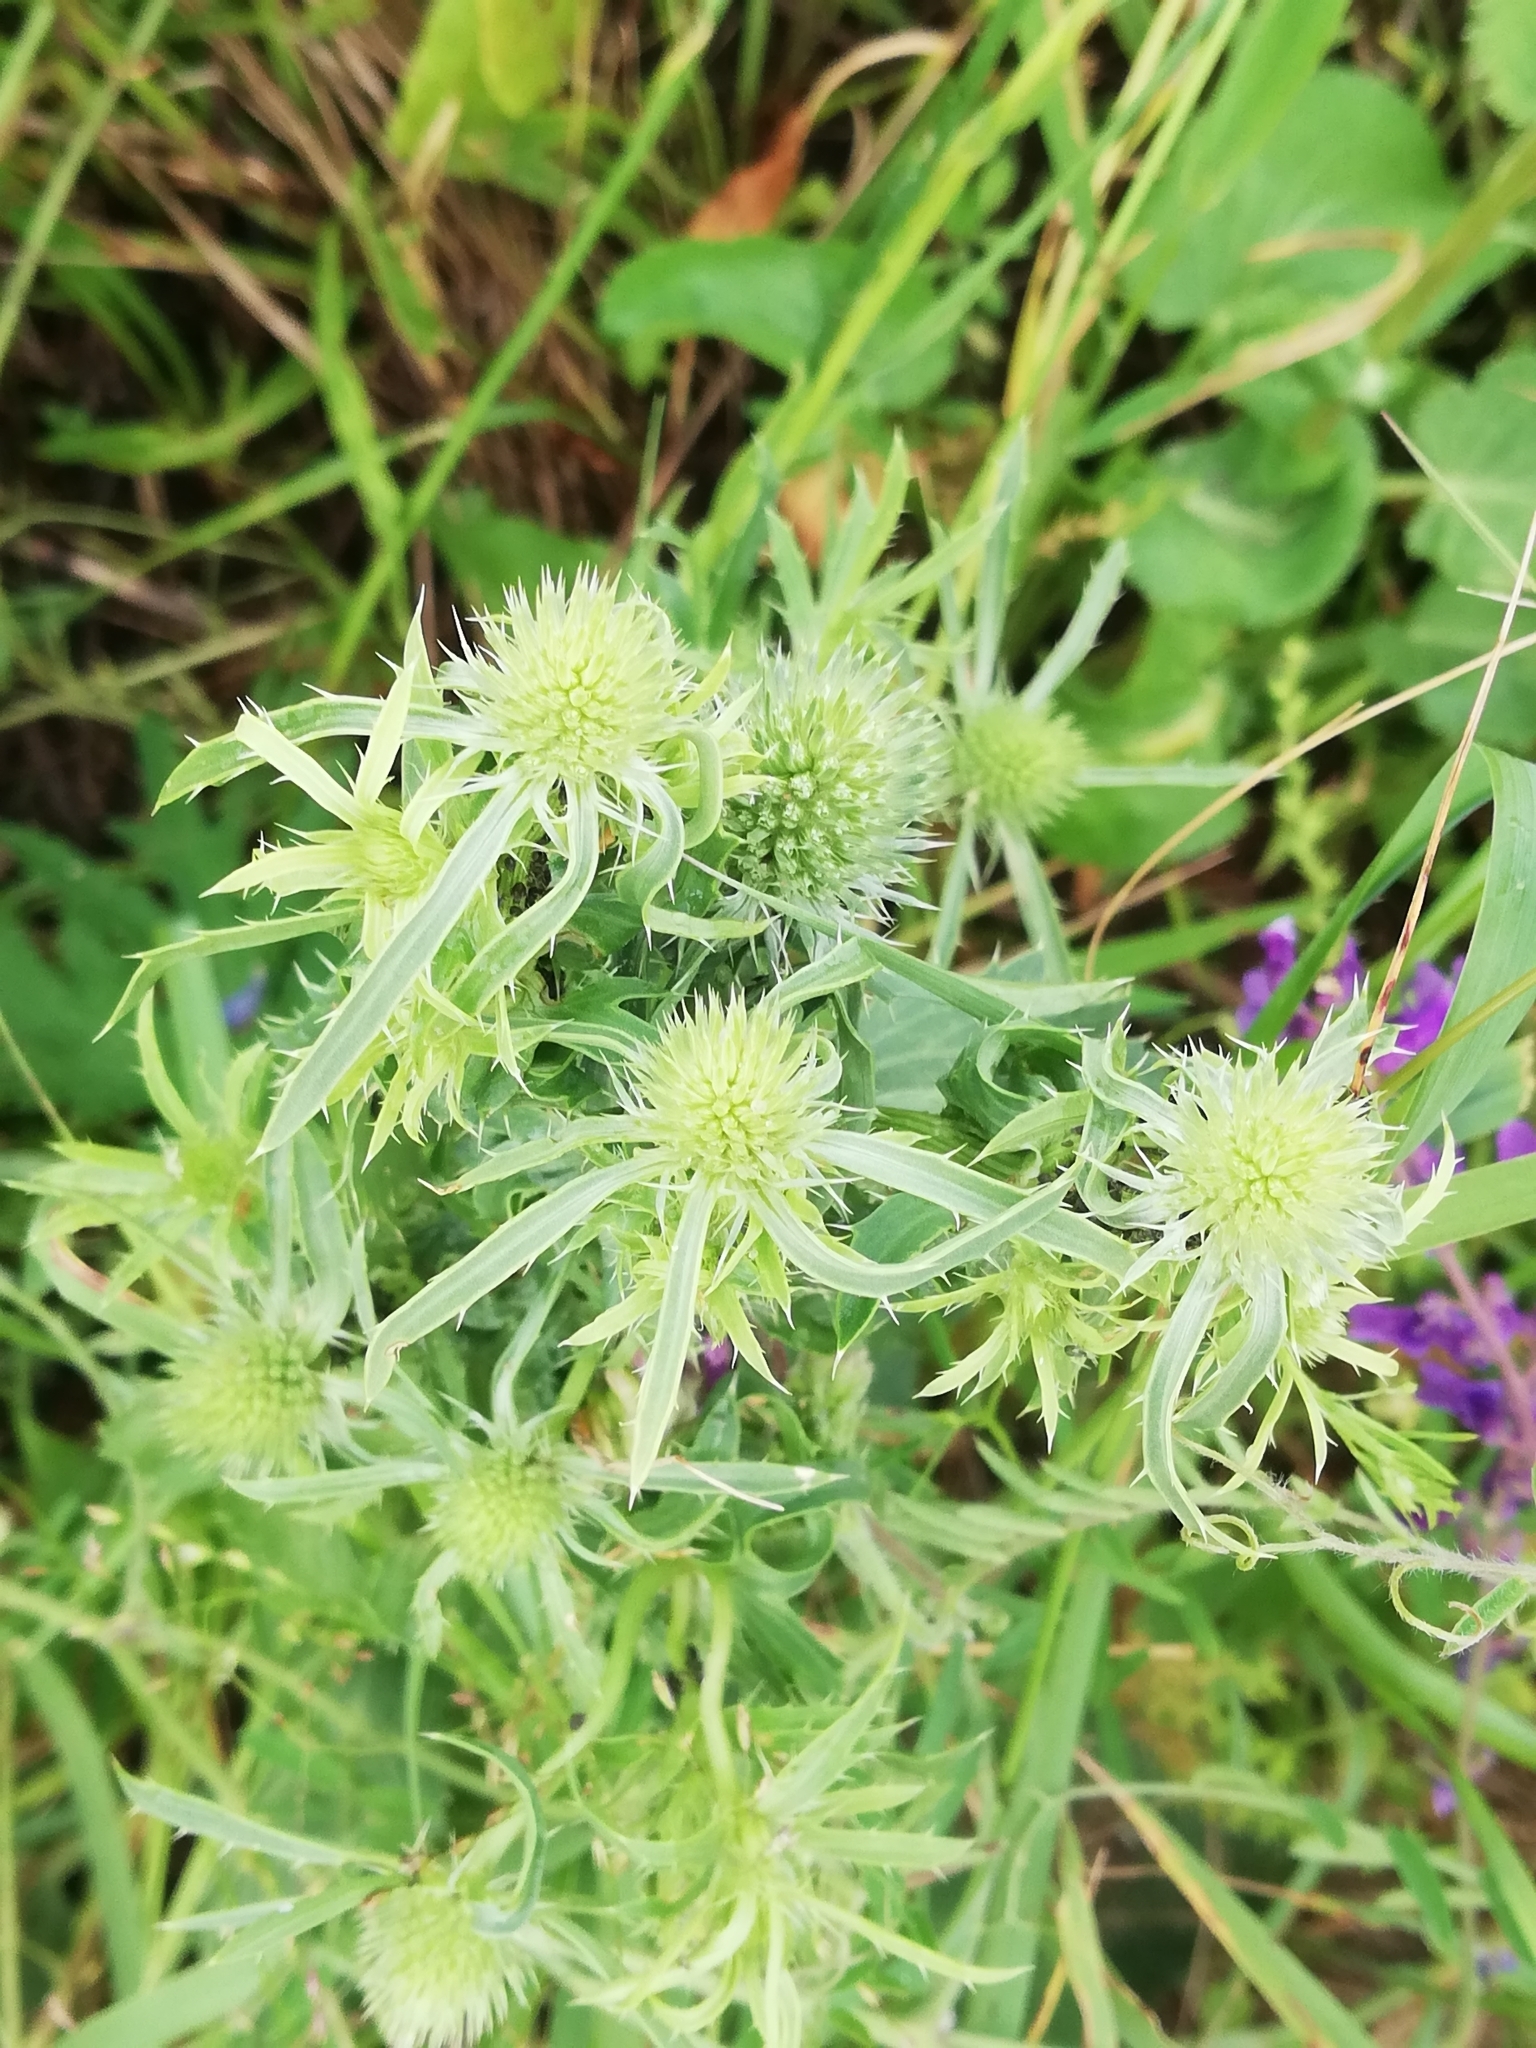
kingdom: Plantae
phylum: Tracheophyta
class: Magnoliopsida
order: Apiales
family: Apiaceae
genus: Eryngium
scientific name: Eryngium planum
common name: Blue eryngo
